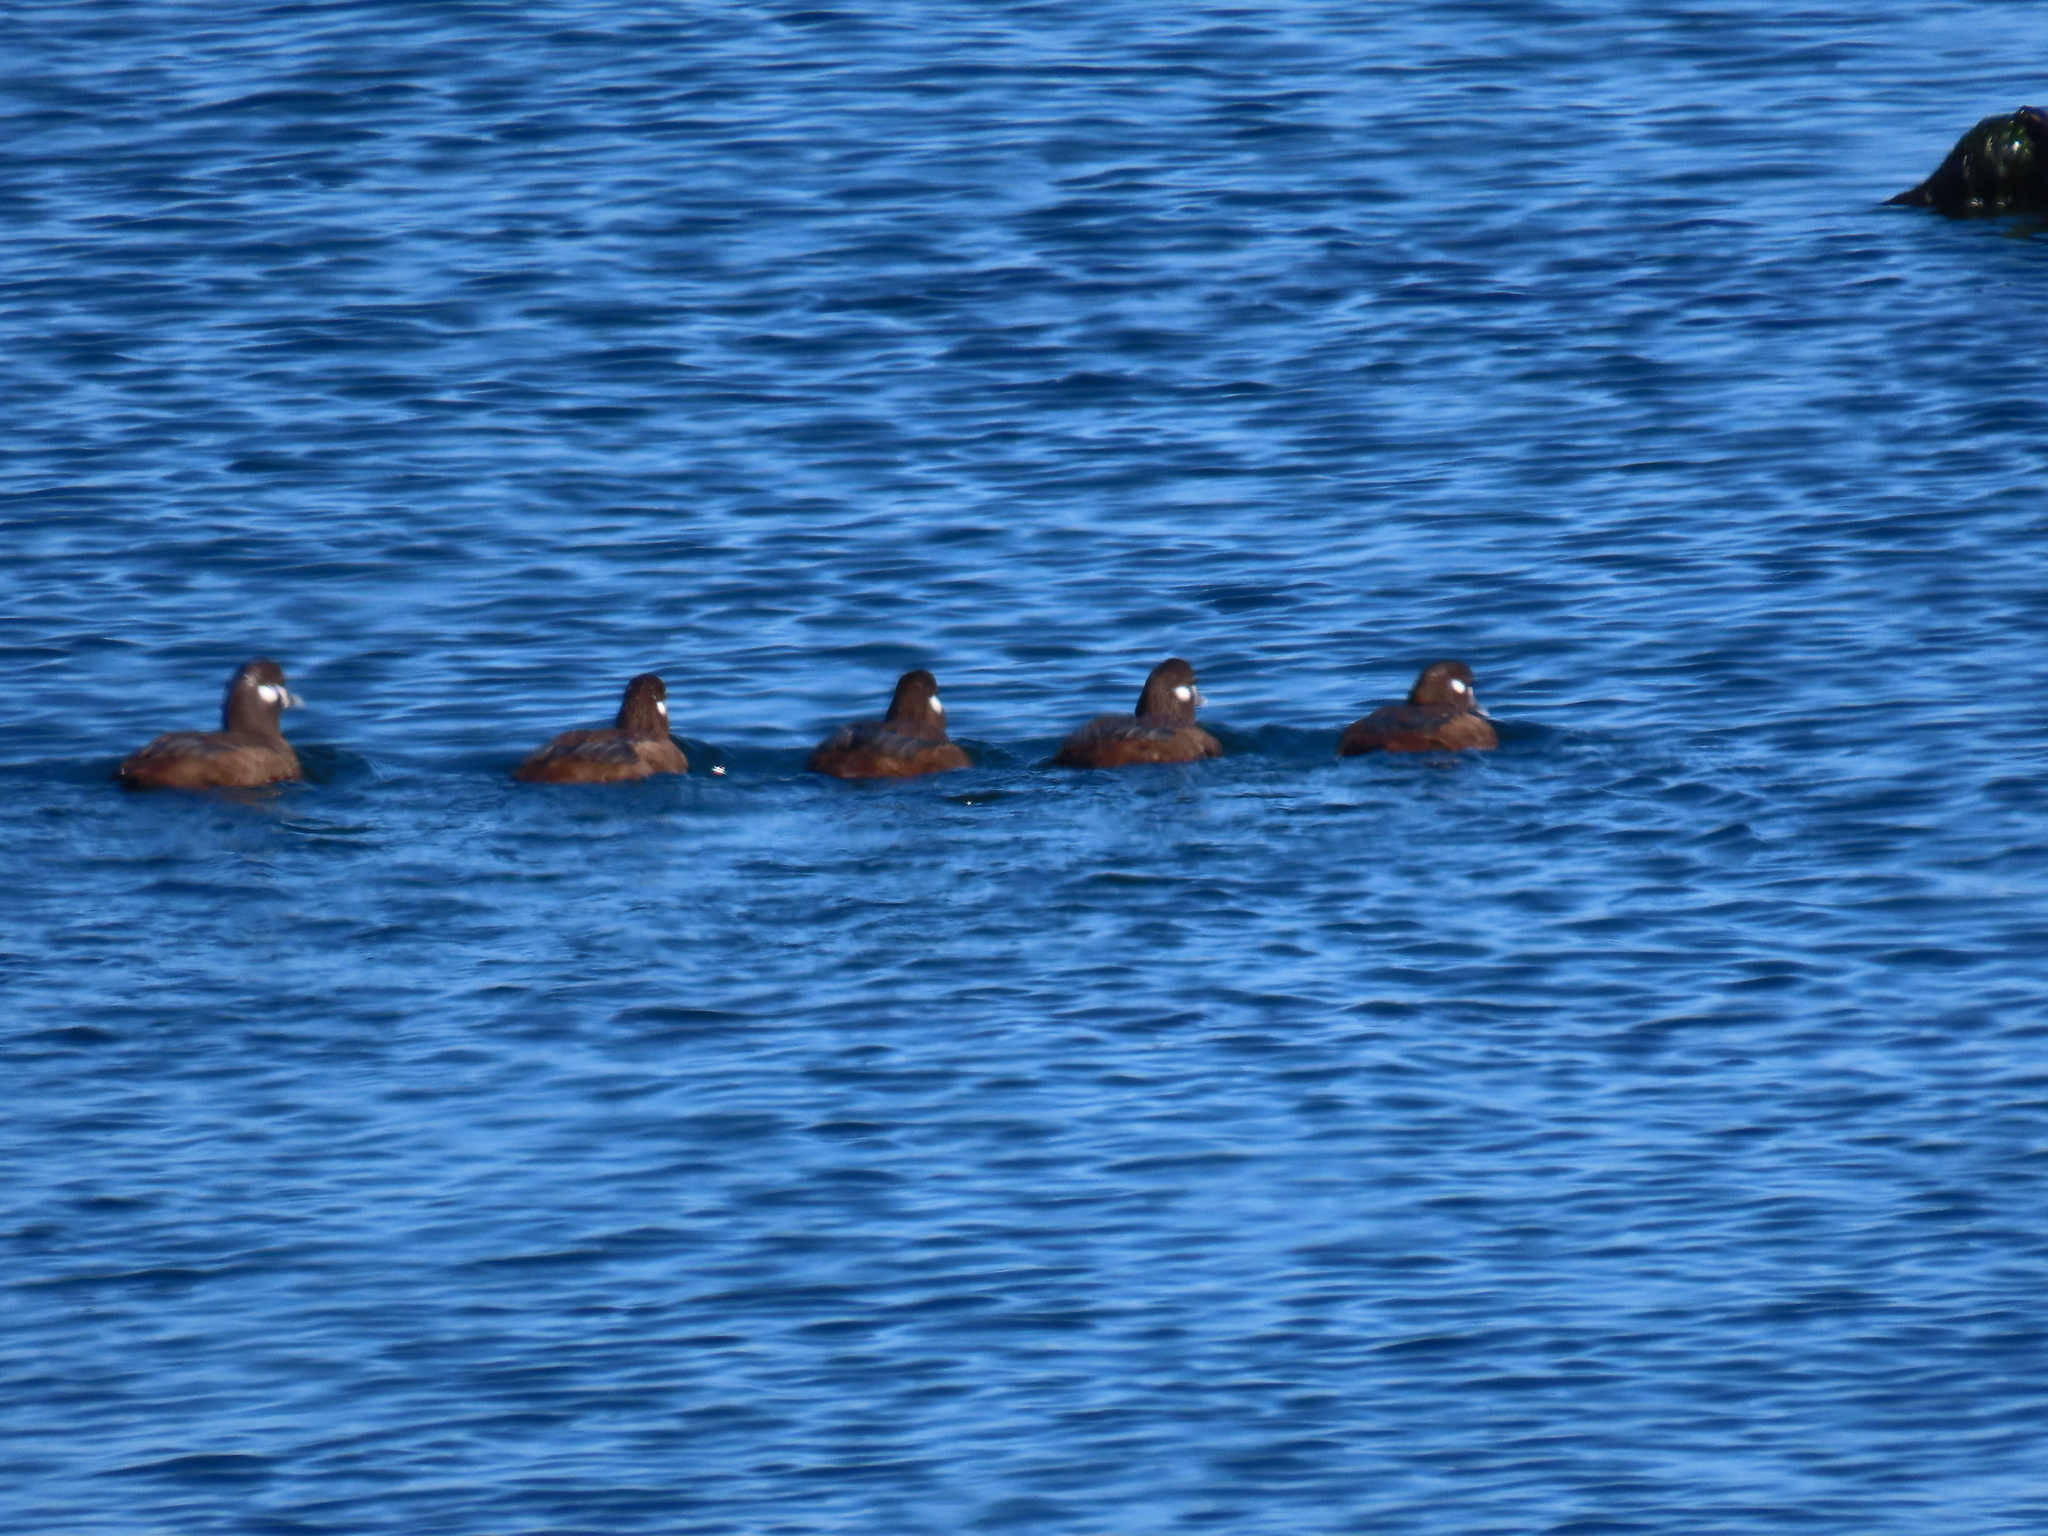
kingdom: Animalia
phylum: Chordata
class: Aves
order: Anseriformes
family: Anatidae
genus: Histrionicus
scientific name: Histrionicus histrionicus
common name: Harlequin duck
